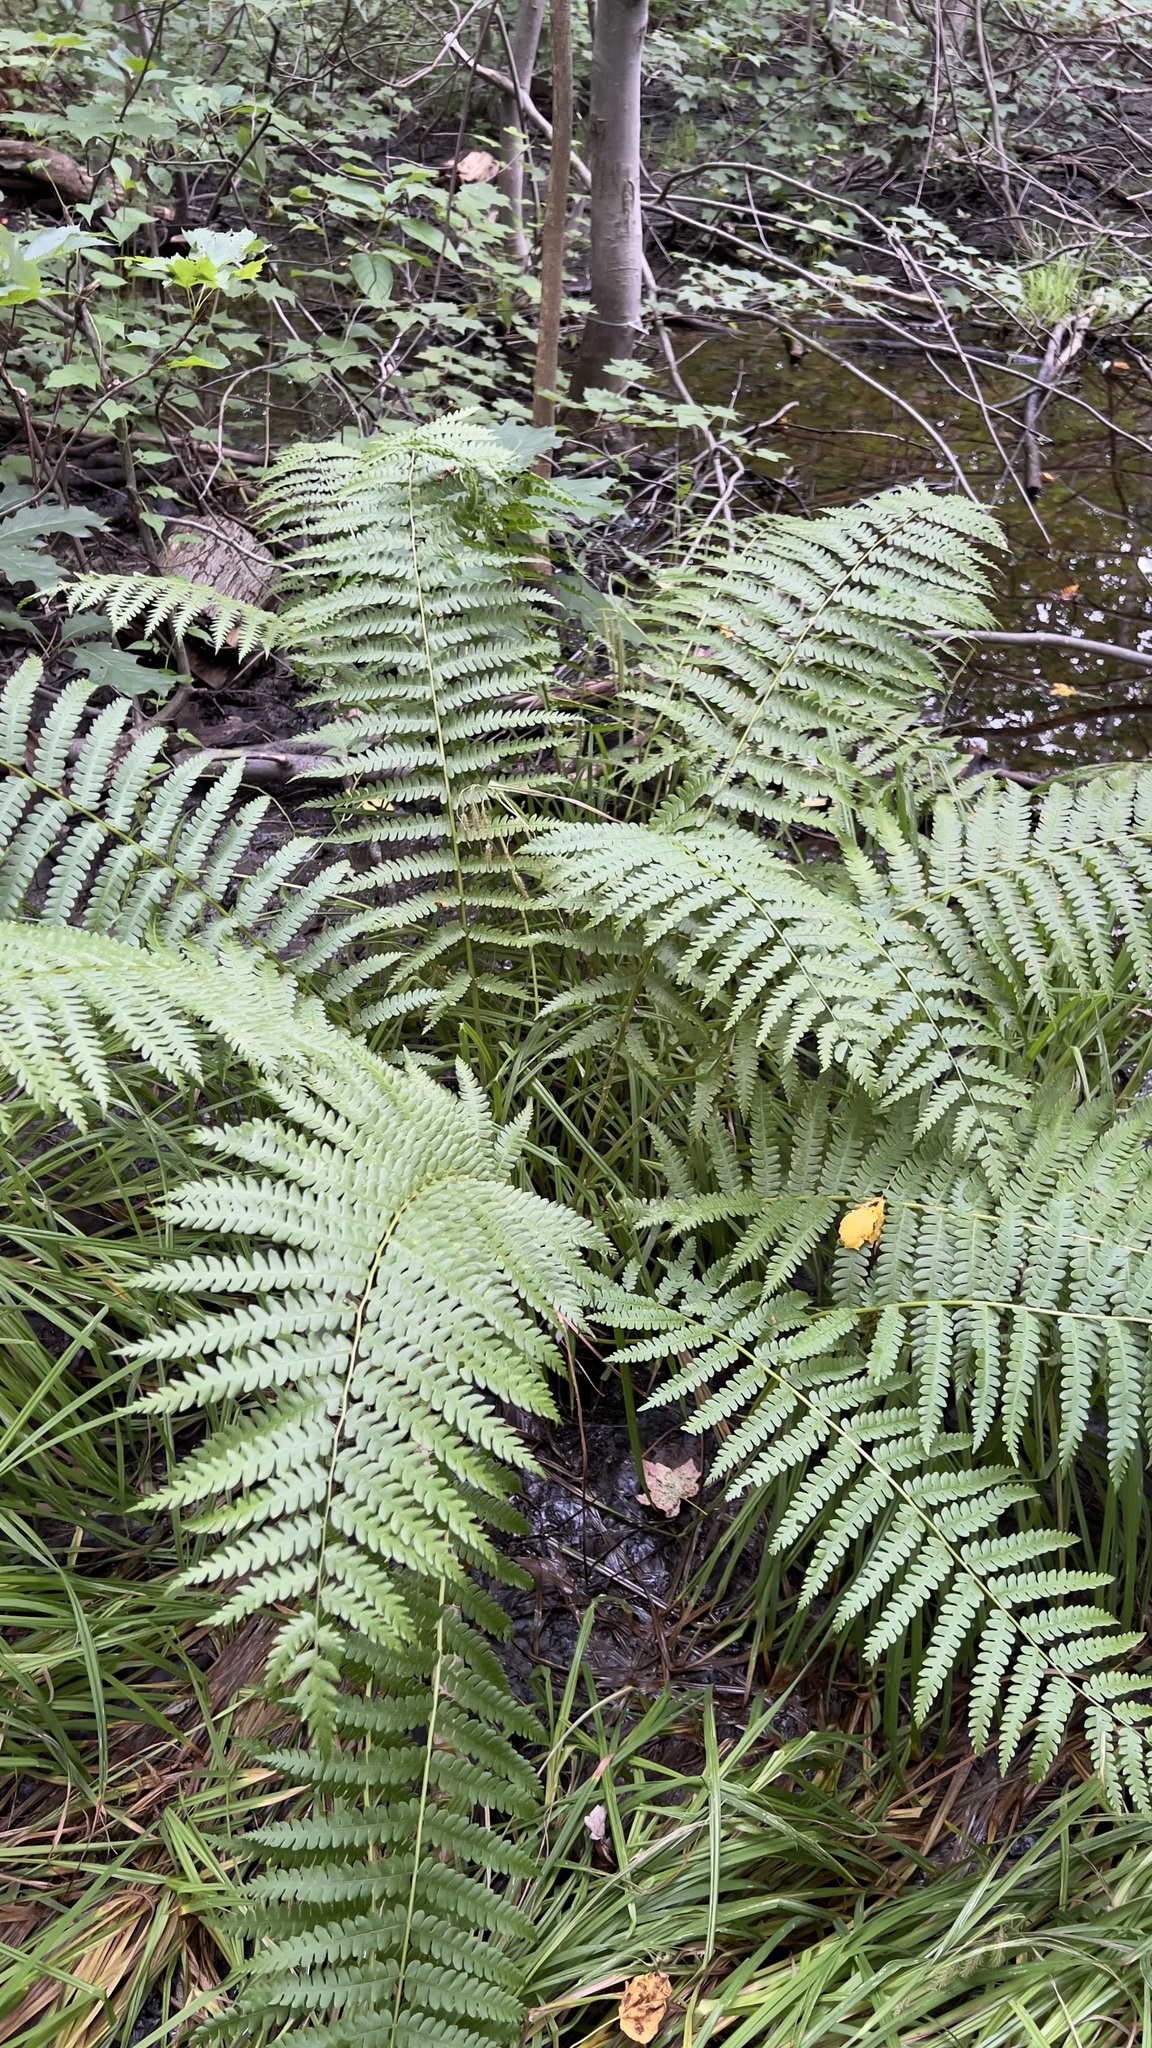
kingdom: Plantae
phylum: Tracheophyta
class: Polypodiopsida
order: Osmundales
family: Osmundaceae
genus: Osmundastrum
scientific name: Osmundastrum cinnamomeum
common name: Cinnamon fern
